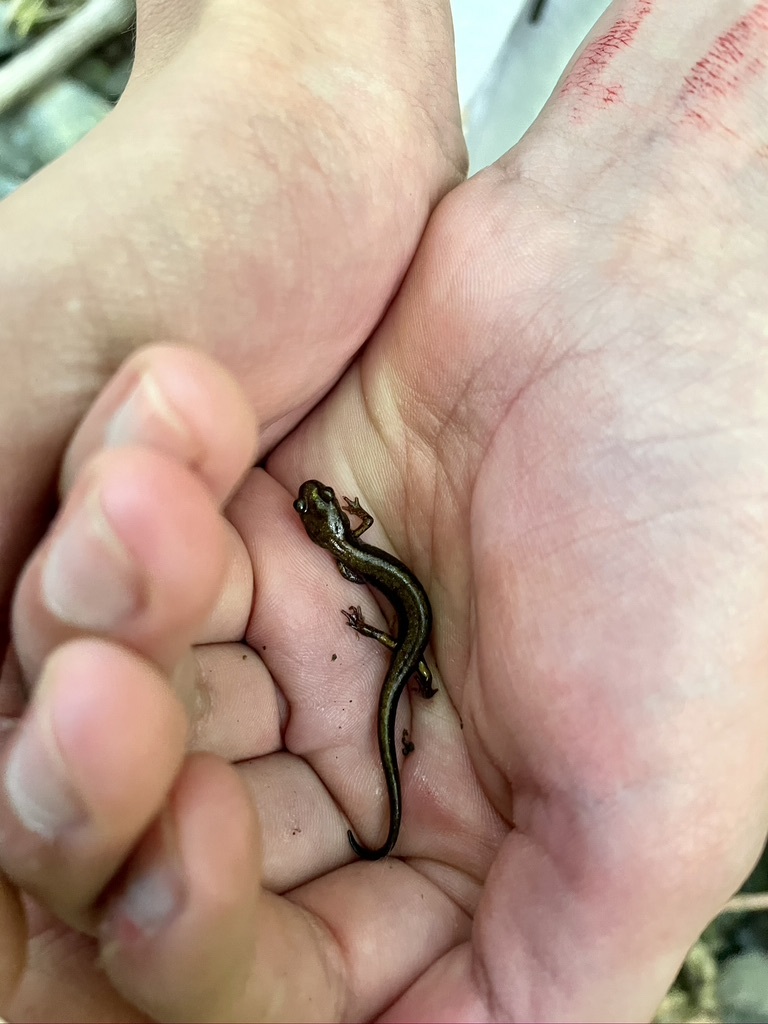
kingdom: Animalia
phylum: Chordata
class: Amphibia
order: Caudata
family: Plethodontidae
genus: Plethodon
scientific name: Plethodon dunni
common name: Dunn's salamander
